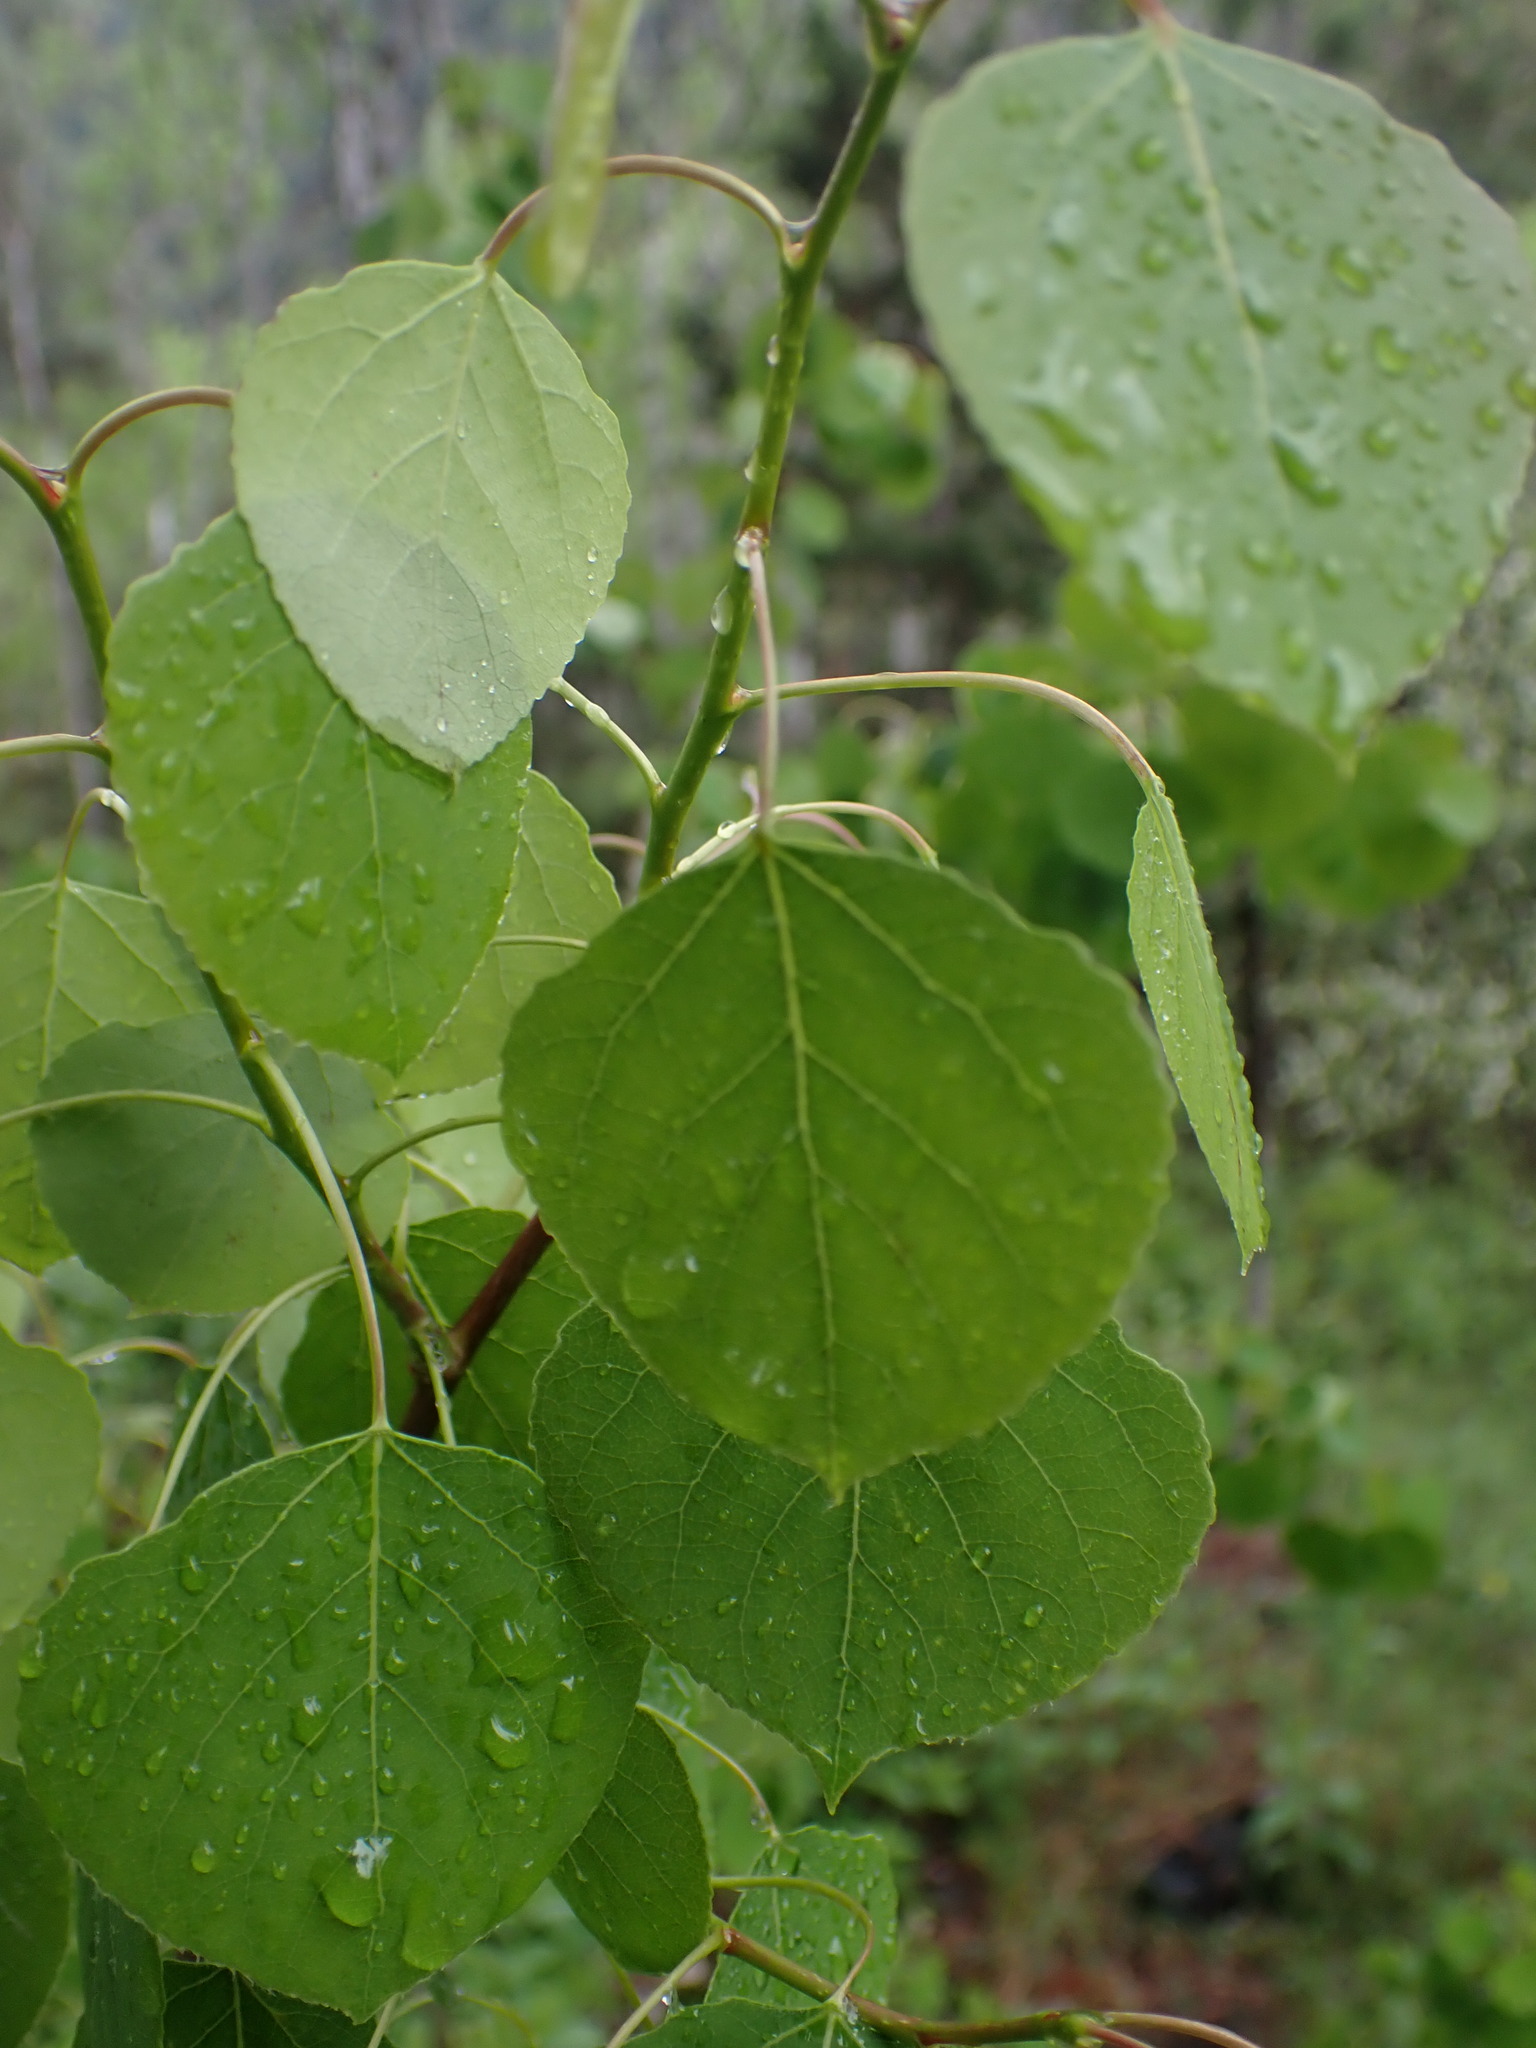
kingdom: Plantae
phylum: Tracheophyta
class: Magnoliopsida
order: Malpighiales
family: Salicaceae
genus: Populus
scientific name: Populus tremuloides
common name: Quaking aspen
